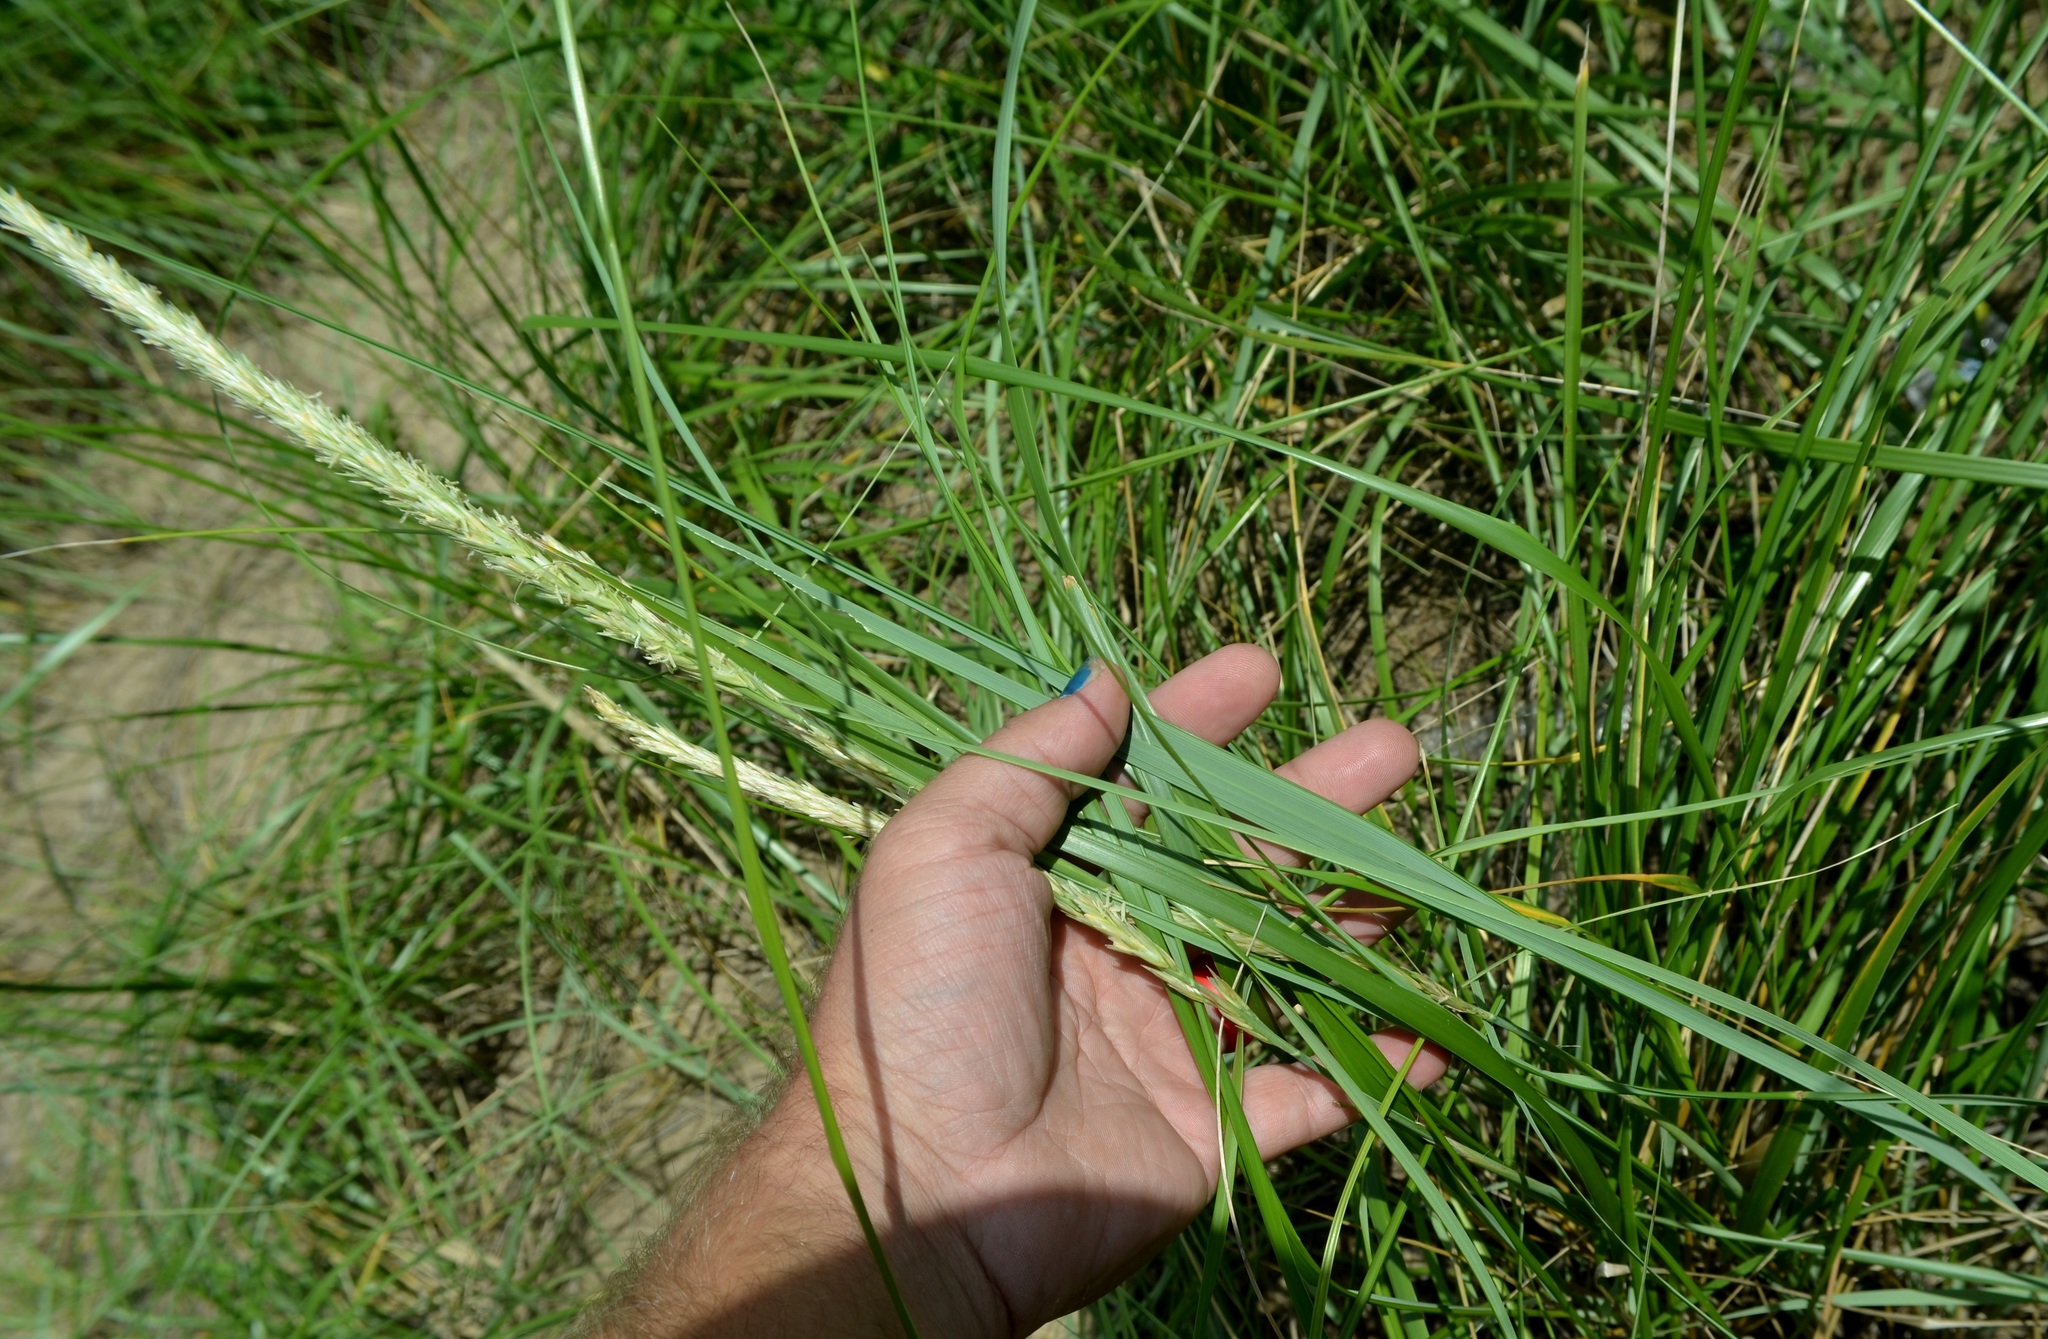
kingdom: Plantae
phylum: Tracheophyta
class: Liliopsida
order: Poales
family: Poaceae
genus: Calamagrostis
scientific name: Calamagrostis breviligulata
